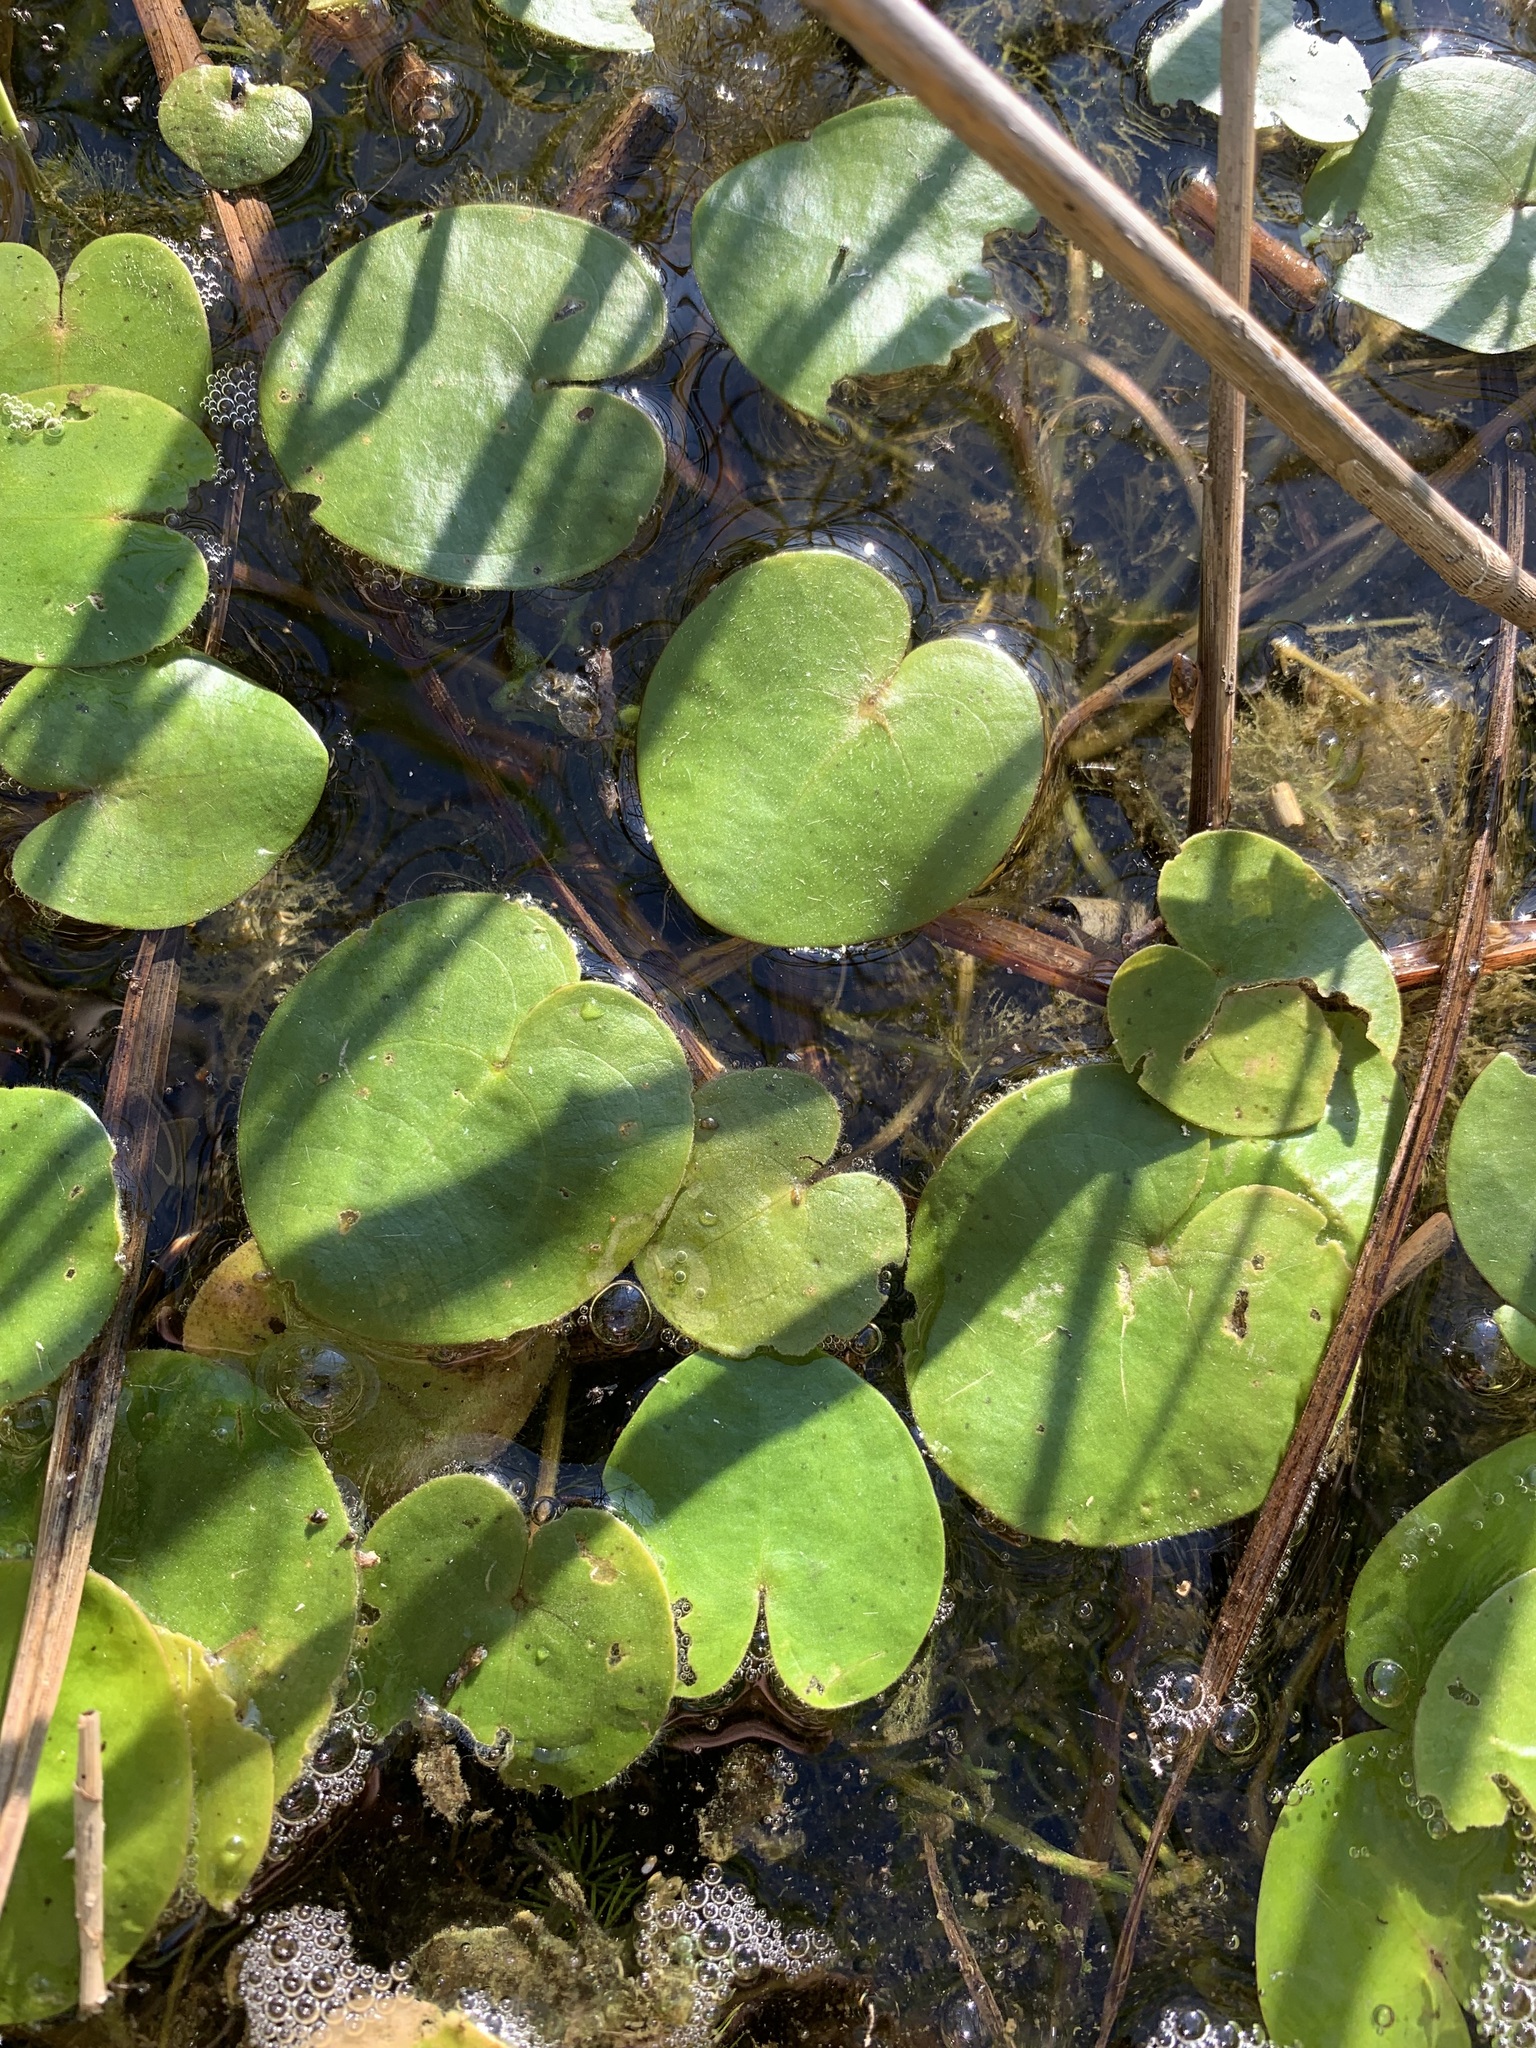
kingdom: Plantae
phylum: Tracheophyta
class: Liliopsida
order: Alismatales
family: Hydrocharitaceae
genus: Hydrocharis
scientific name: Hydrocharis morsus-ranae
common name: Frogbit
